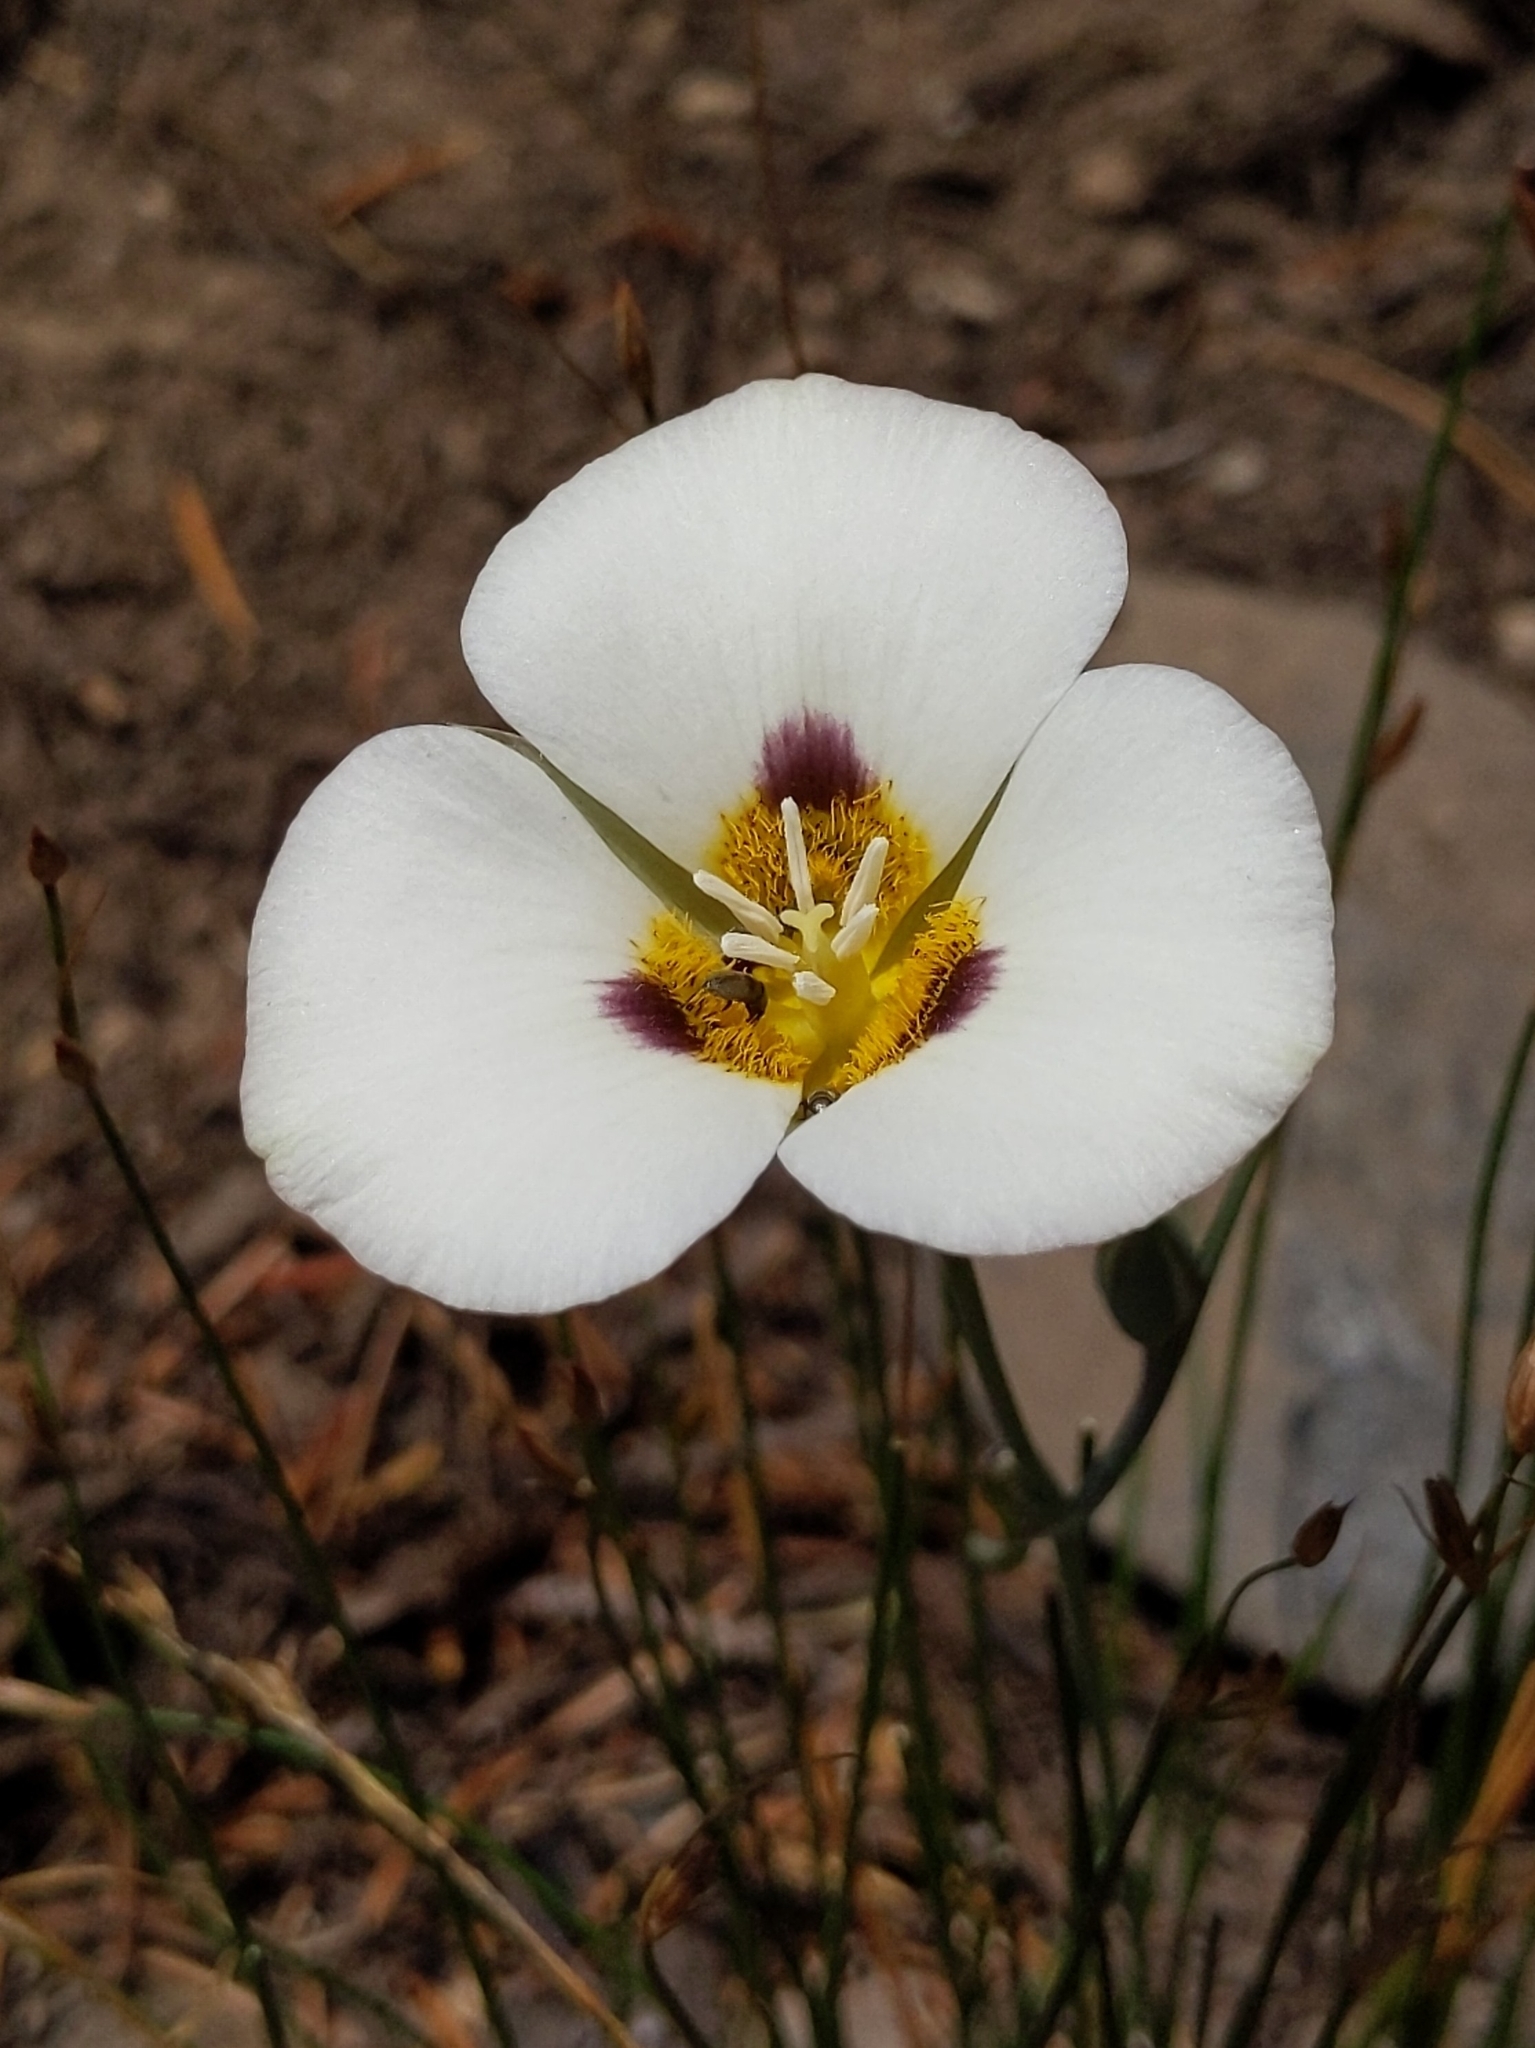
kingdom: Plantae
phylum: Tracheophyta
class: Liliopsida
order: Liliales
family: Liliaceae
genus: Calochortus
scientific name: Calochortus leichtlinii
